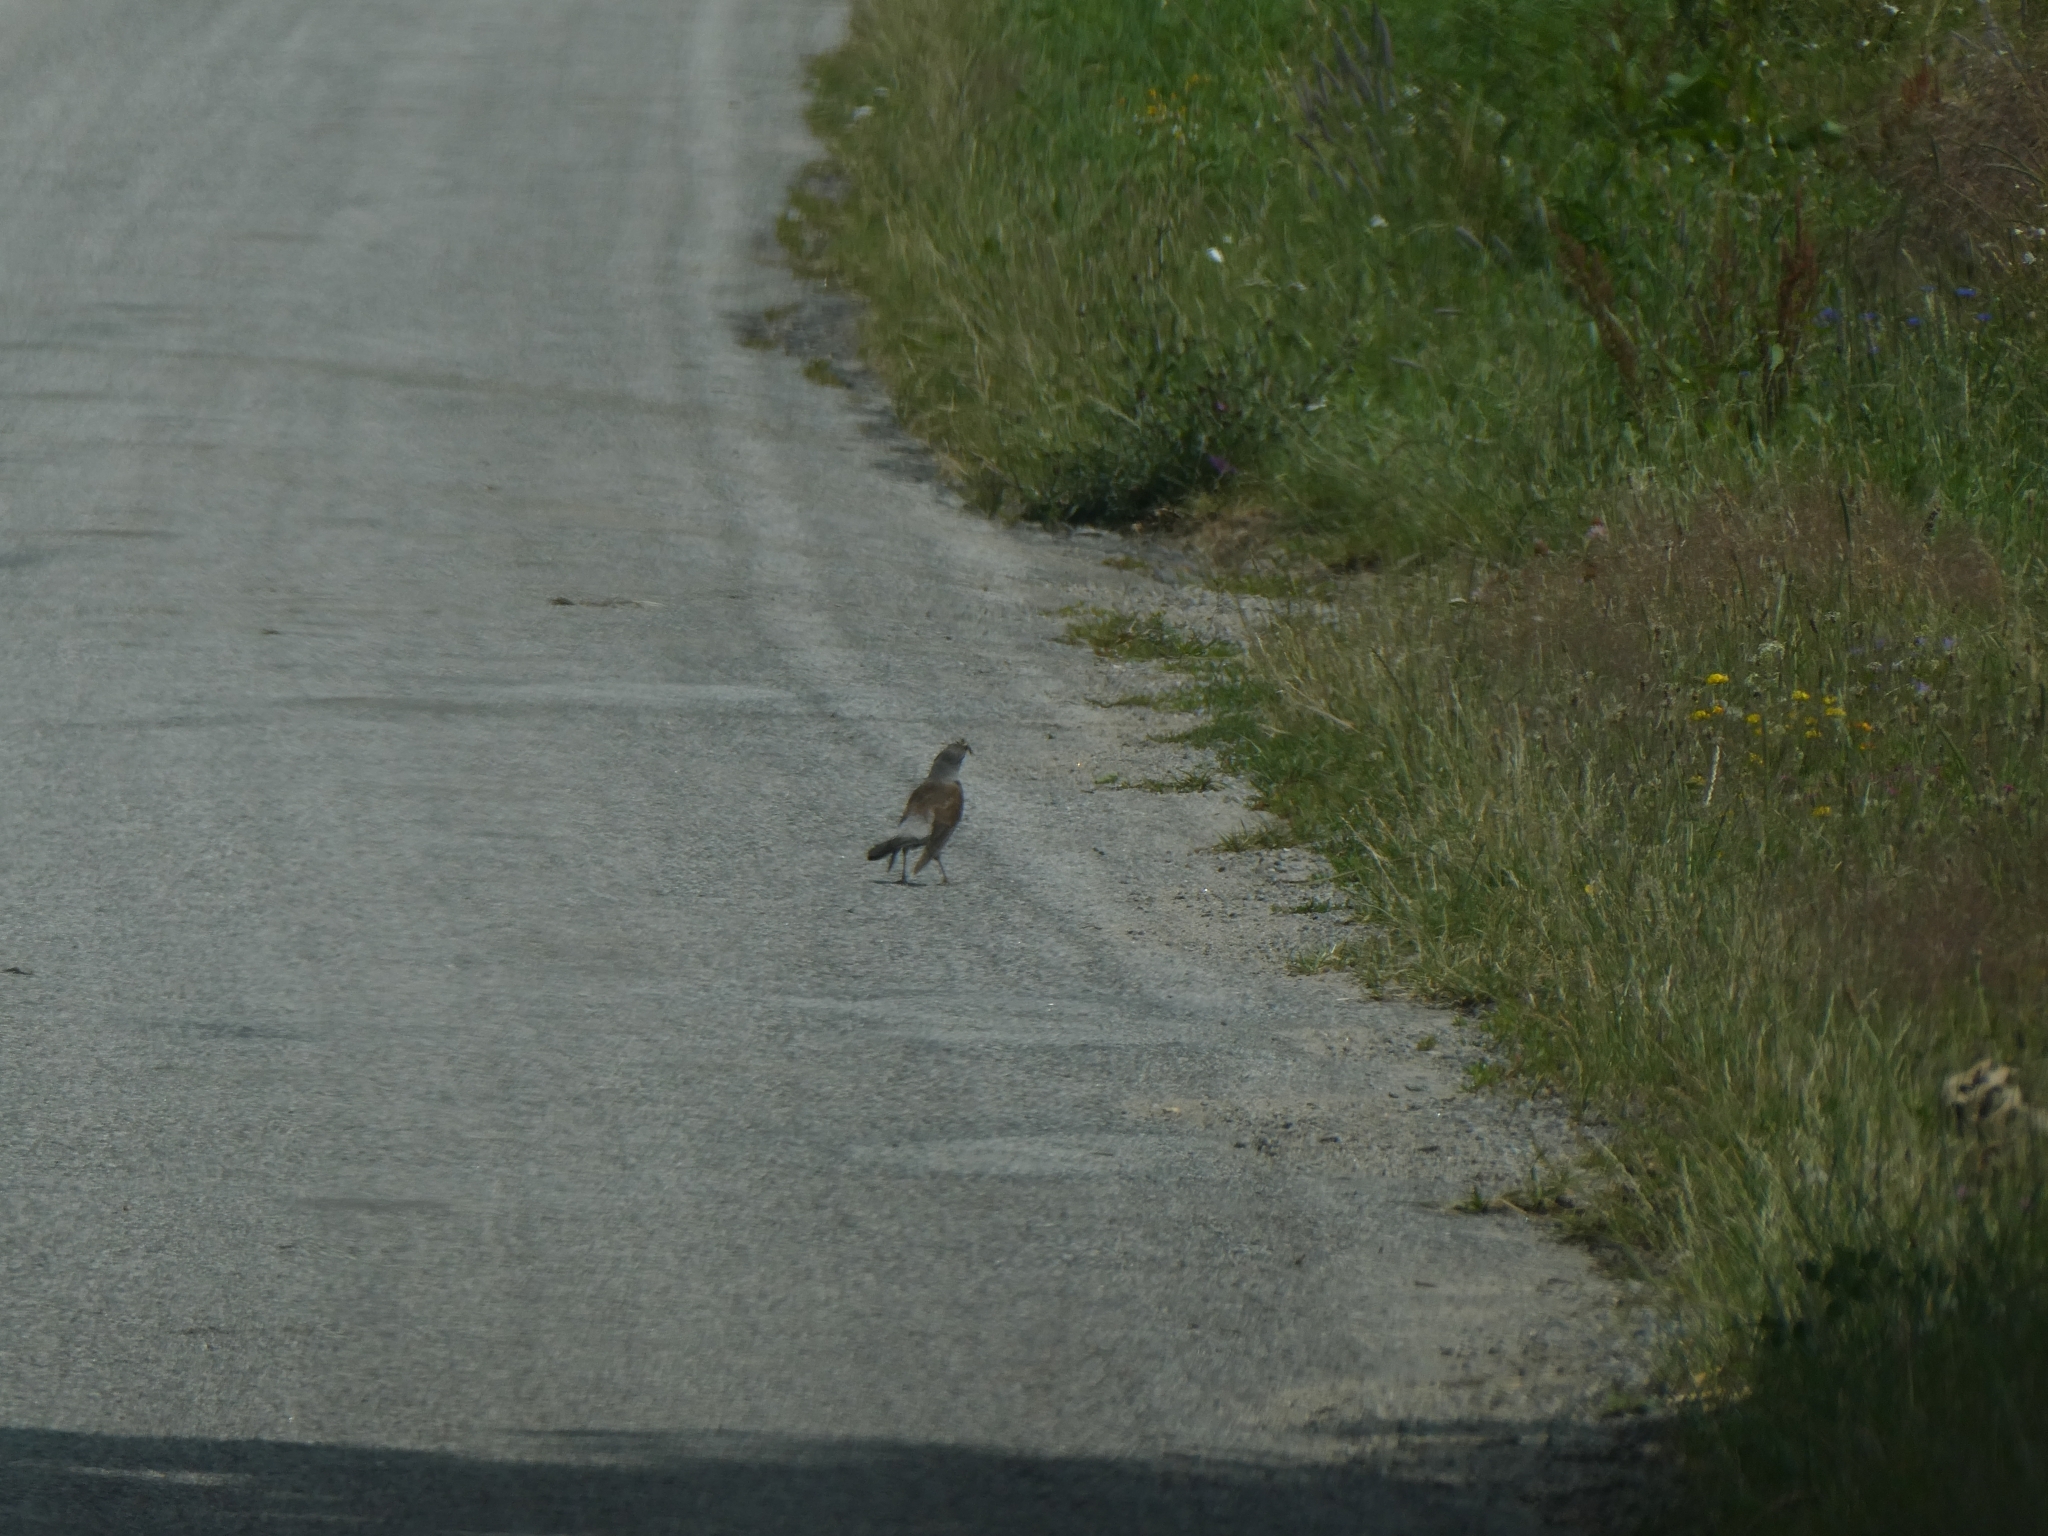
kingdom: Animalia
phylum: Chordata
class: Aves
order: Passeriformes
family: Turdidae
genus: Turdus
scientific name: Turdus pilaris
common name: Fieldfare
